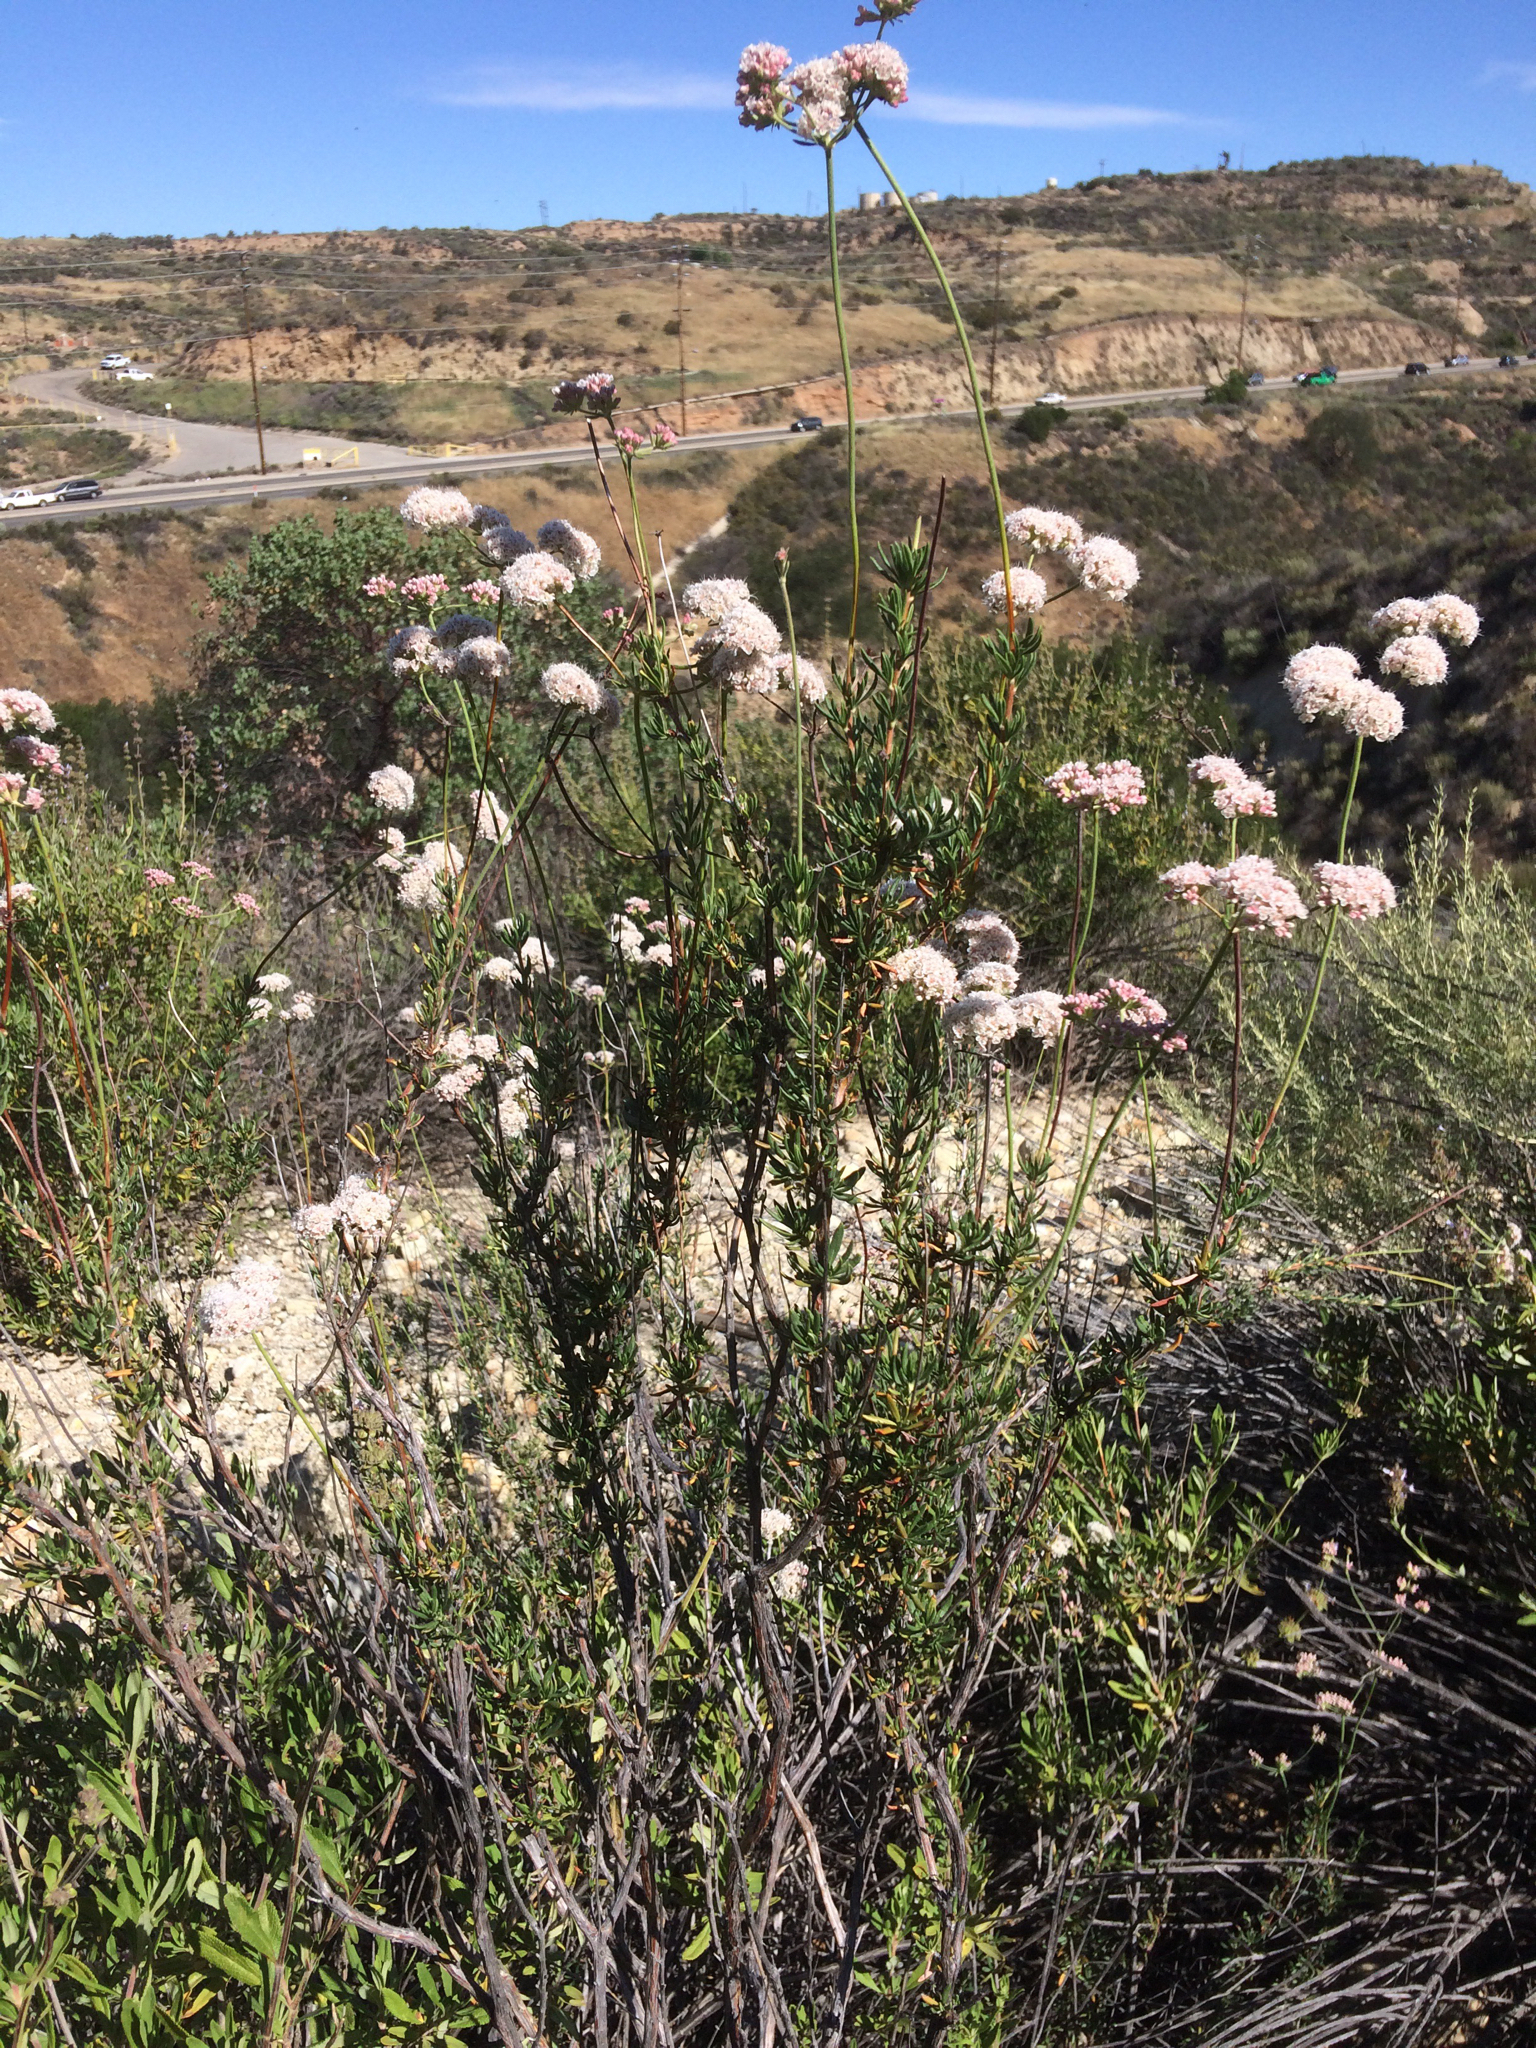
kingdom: Plantae
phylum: Tracheophyta
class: Magnoliopsida
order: Caryophyllales
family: Polygonaceae
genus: Eriogonum
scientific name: Eriogonum fasciculatum
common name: California wild buckwheat
